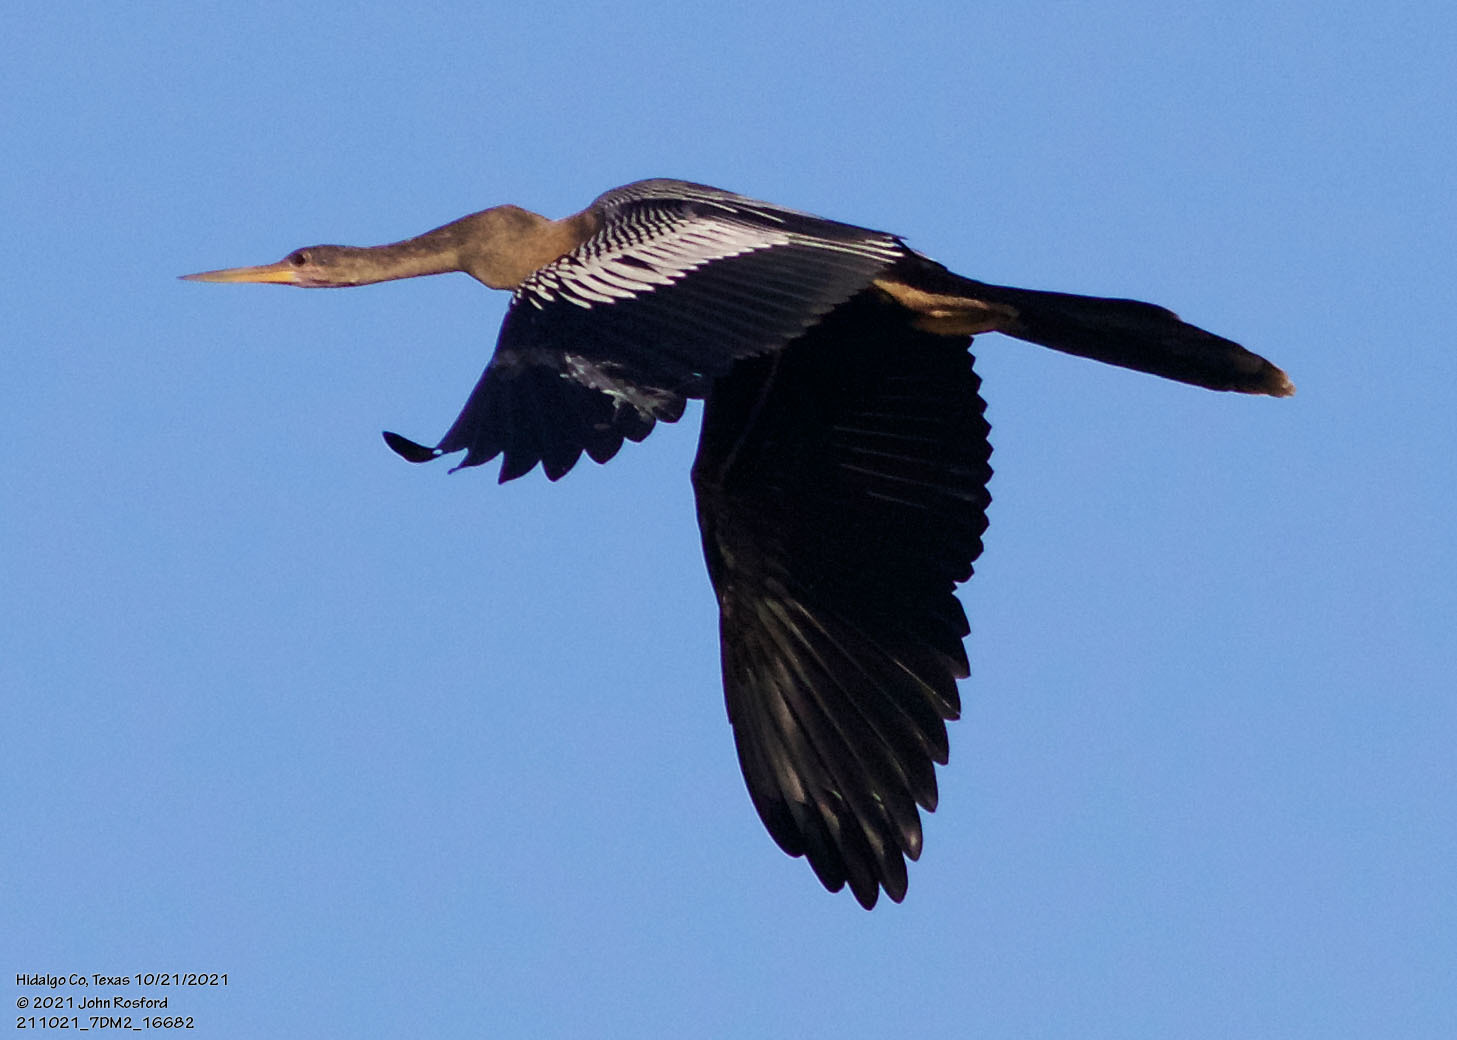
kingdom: Animalia
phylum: Chordata
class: Aves
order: Suliformes
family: Anhingidae
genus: Anhinga
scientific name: Anhinga anhinga
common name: Anhinga
